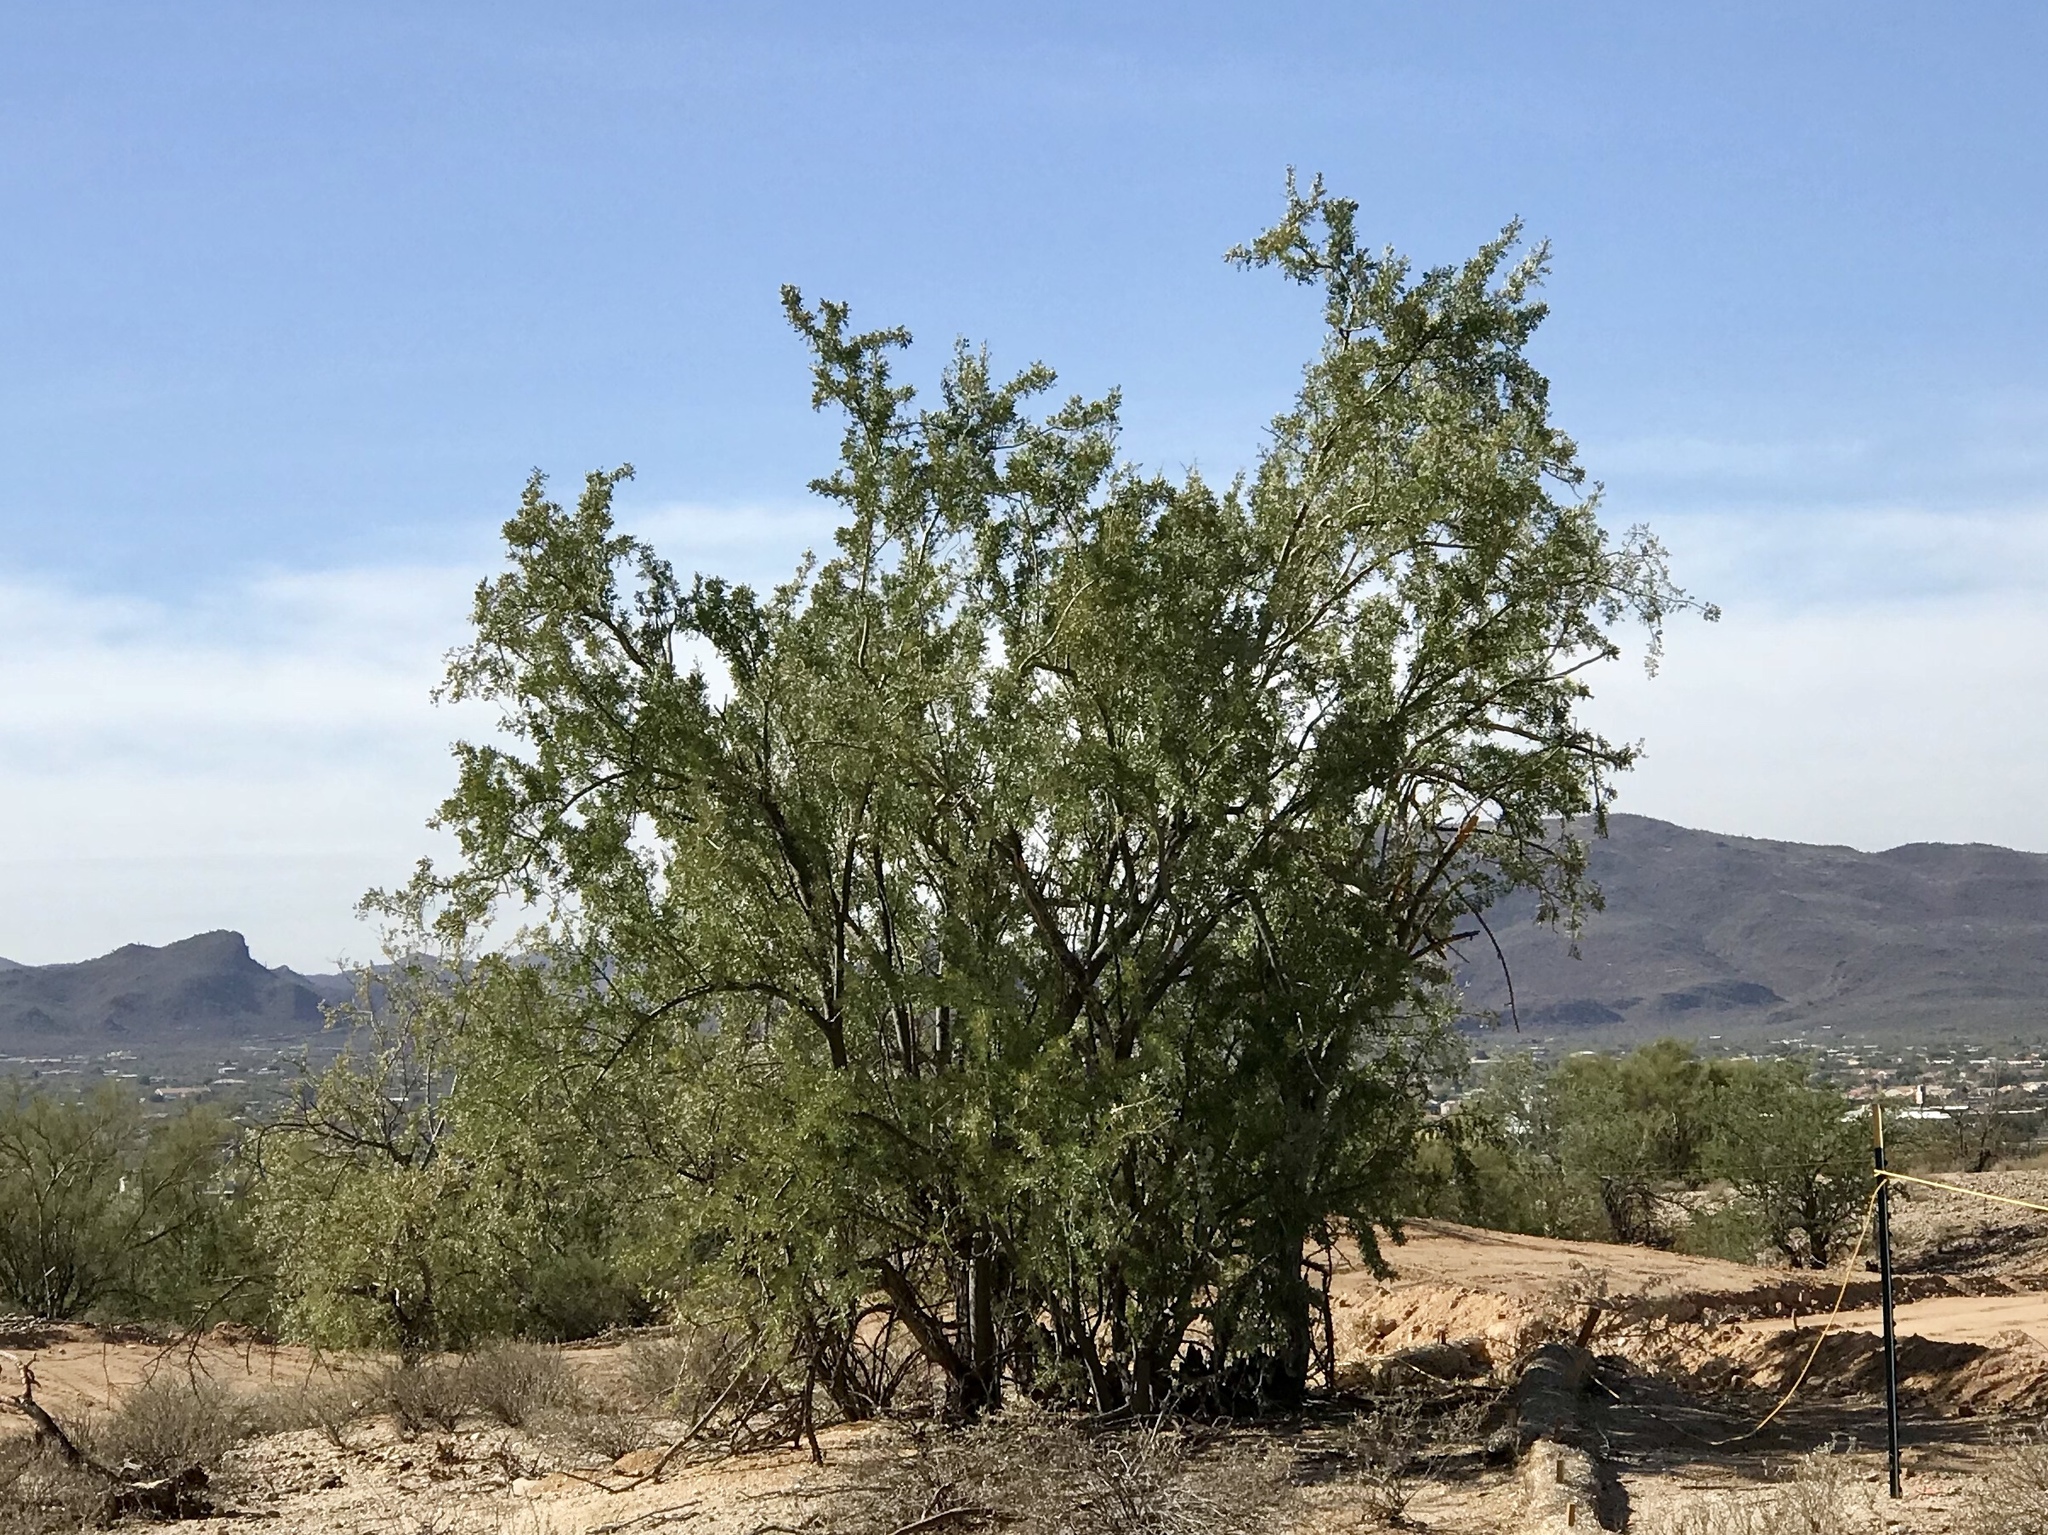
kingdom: Plantae
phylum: Tracheophyta
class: Magnoliopsida
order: Fabales
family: Fabaceae
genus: Olneya
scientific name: Olneya tesota
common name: Desert ironwood
